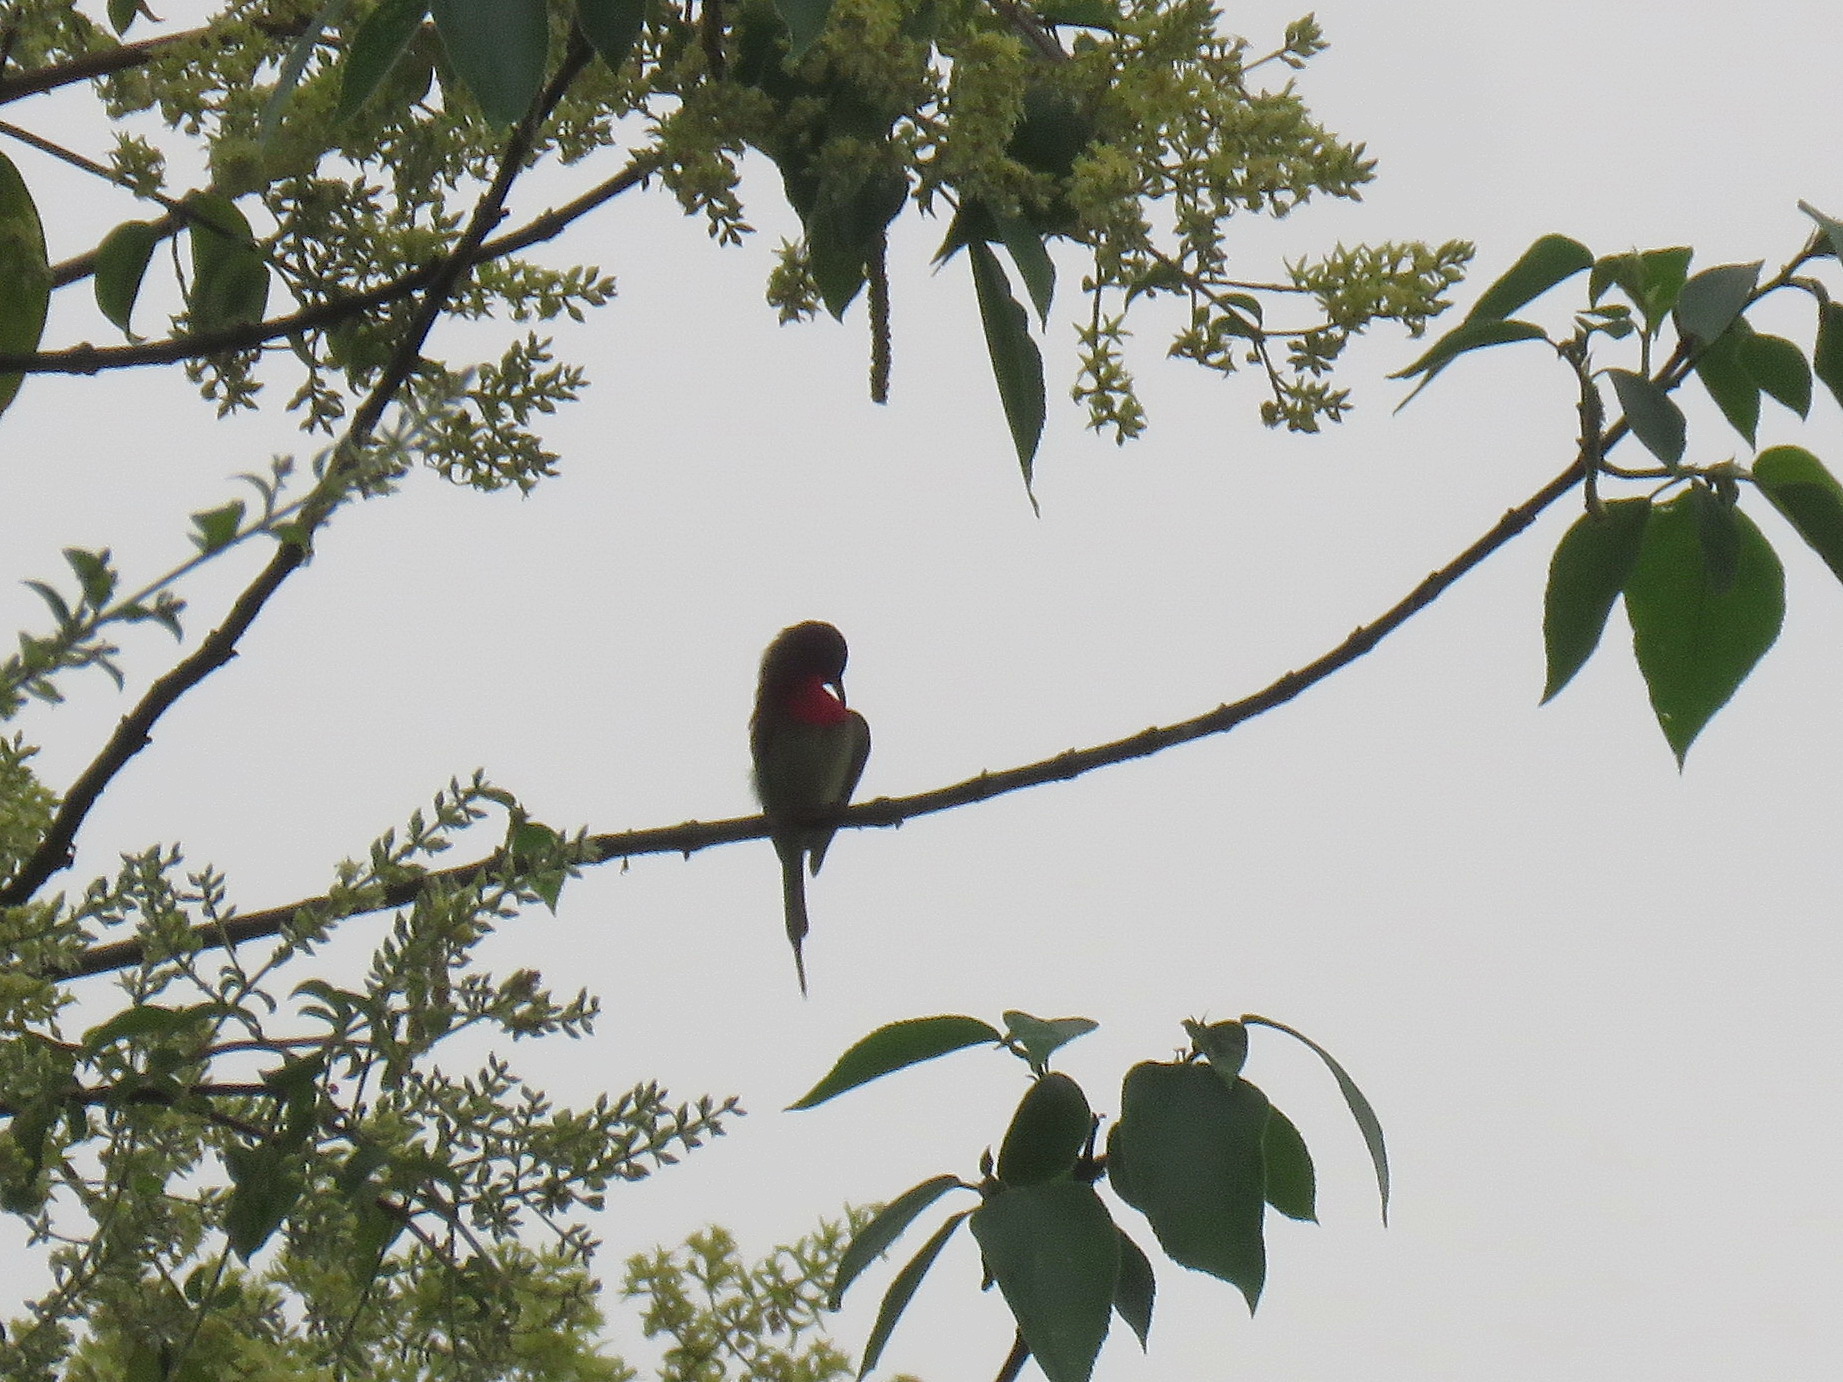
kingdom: Animalia
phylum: Chordata
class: Aves
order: Passeriformes
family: Nectariniidae
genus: Aethopyga
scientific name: Aethopyga siparaja
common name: Crimson sunbird
